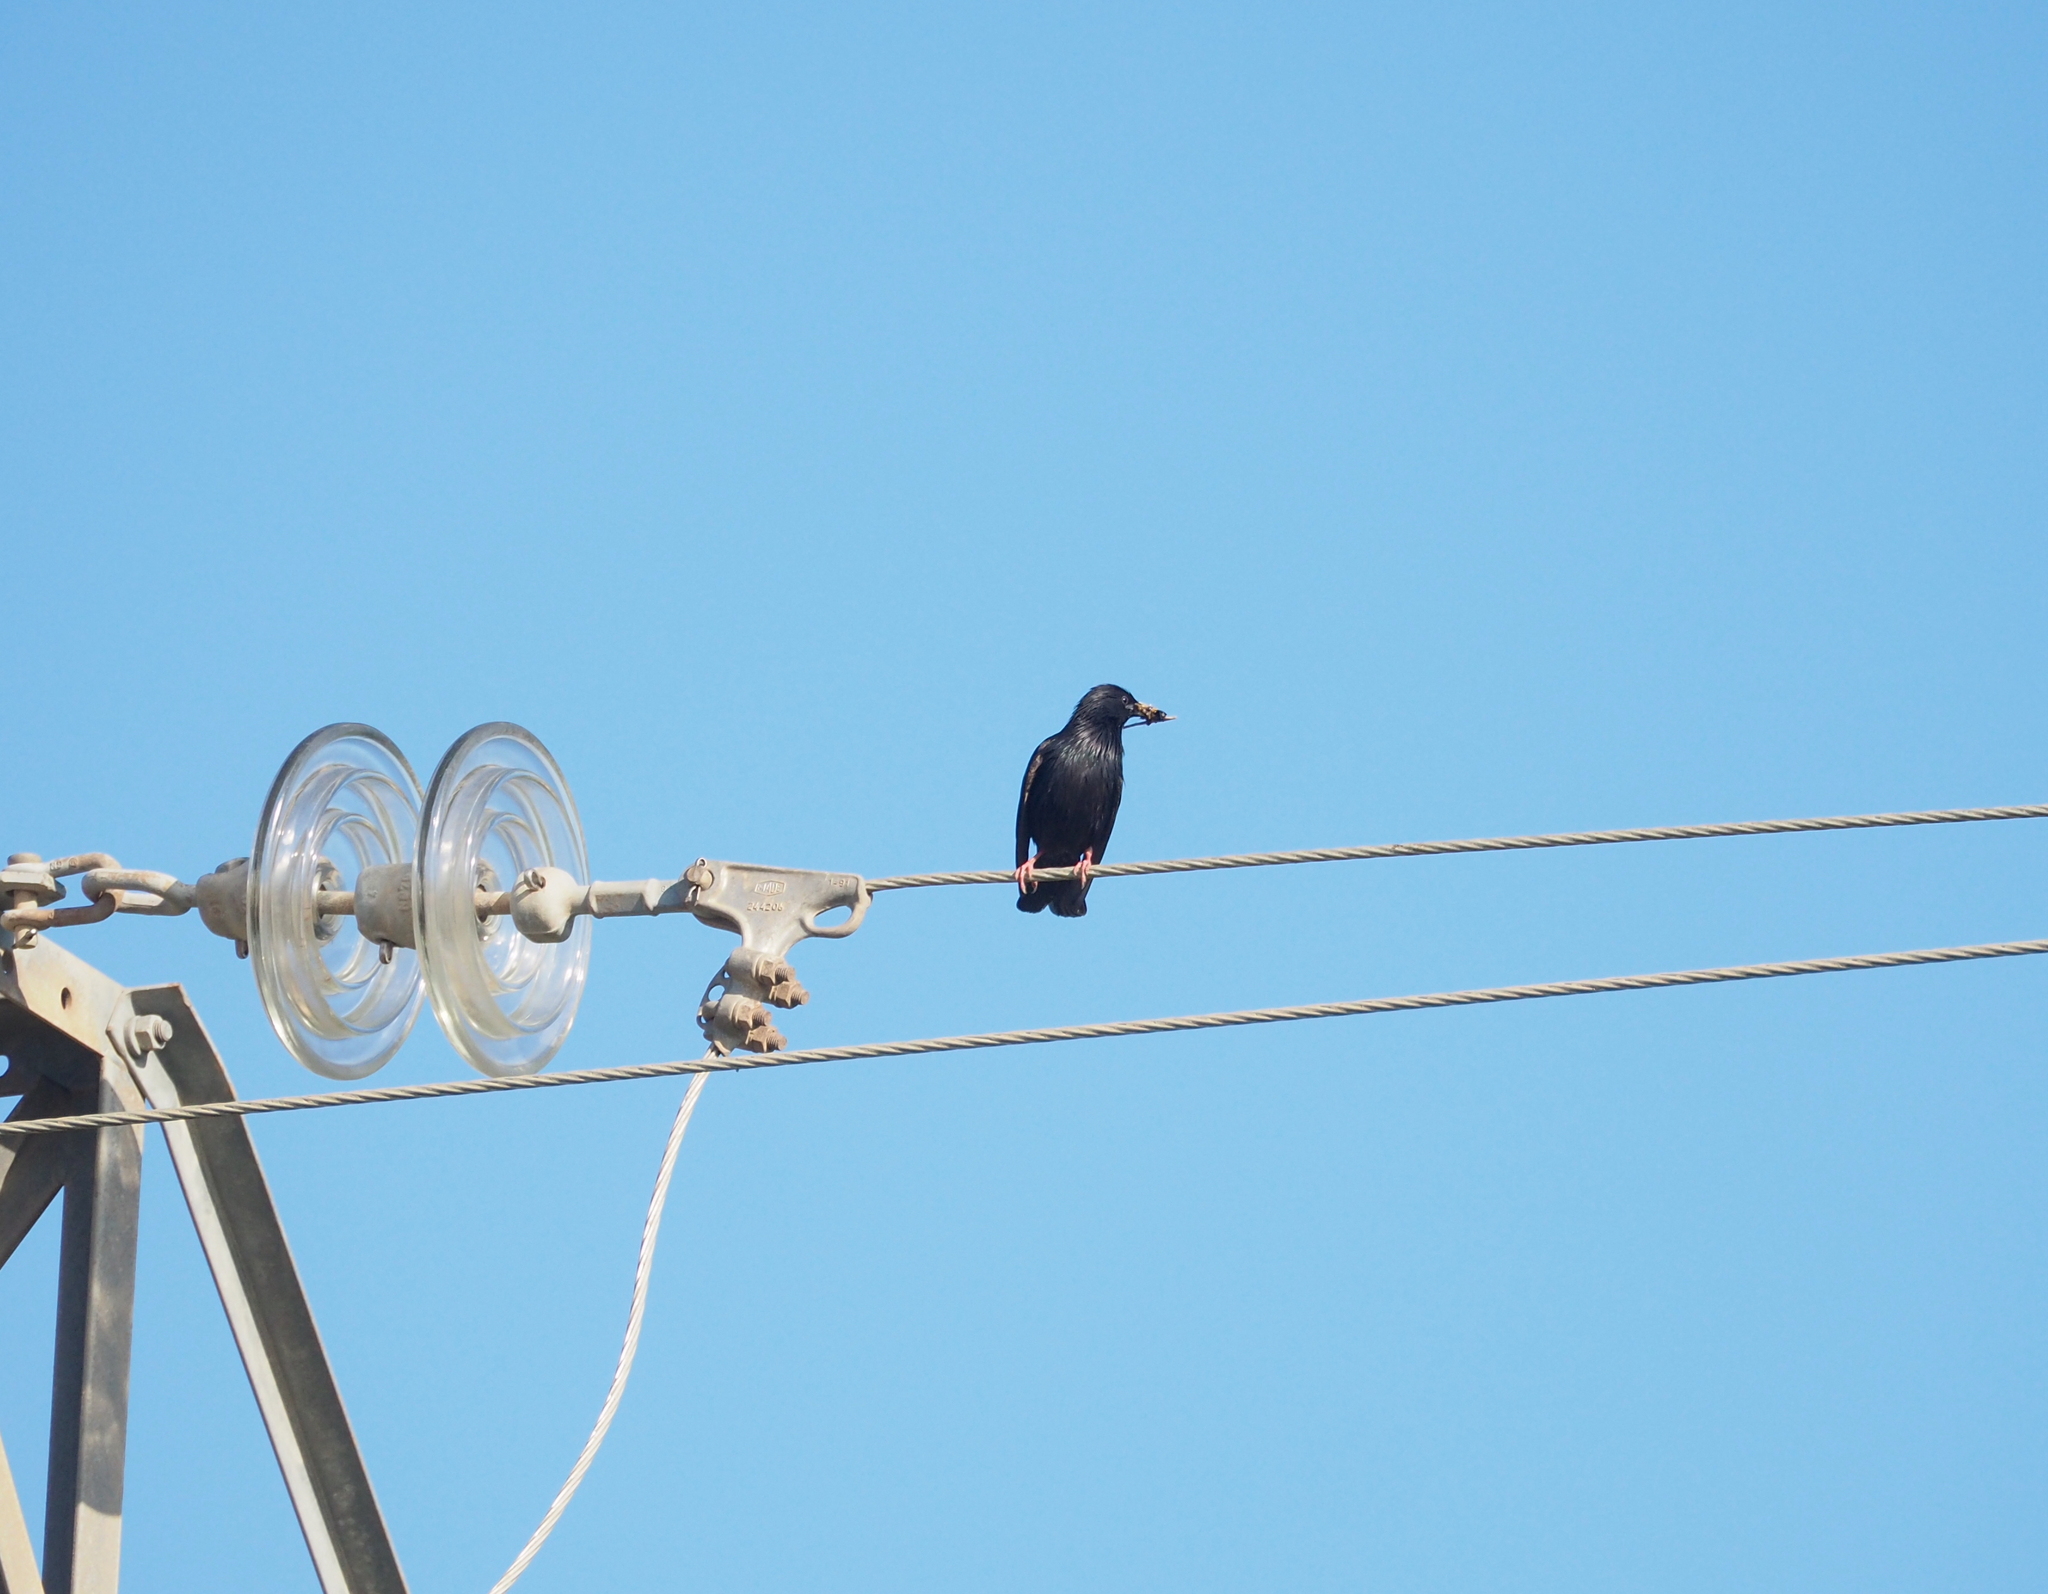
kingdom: Animalia
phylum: Chordata
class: Aves
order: Passeriformes
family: Sturnidae
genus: Sturnus
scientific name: Sturnus unicolor
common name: Spotless starling
